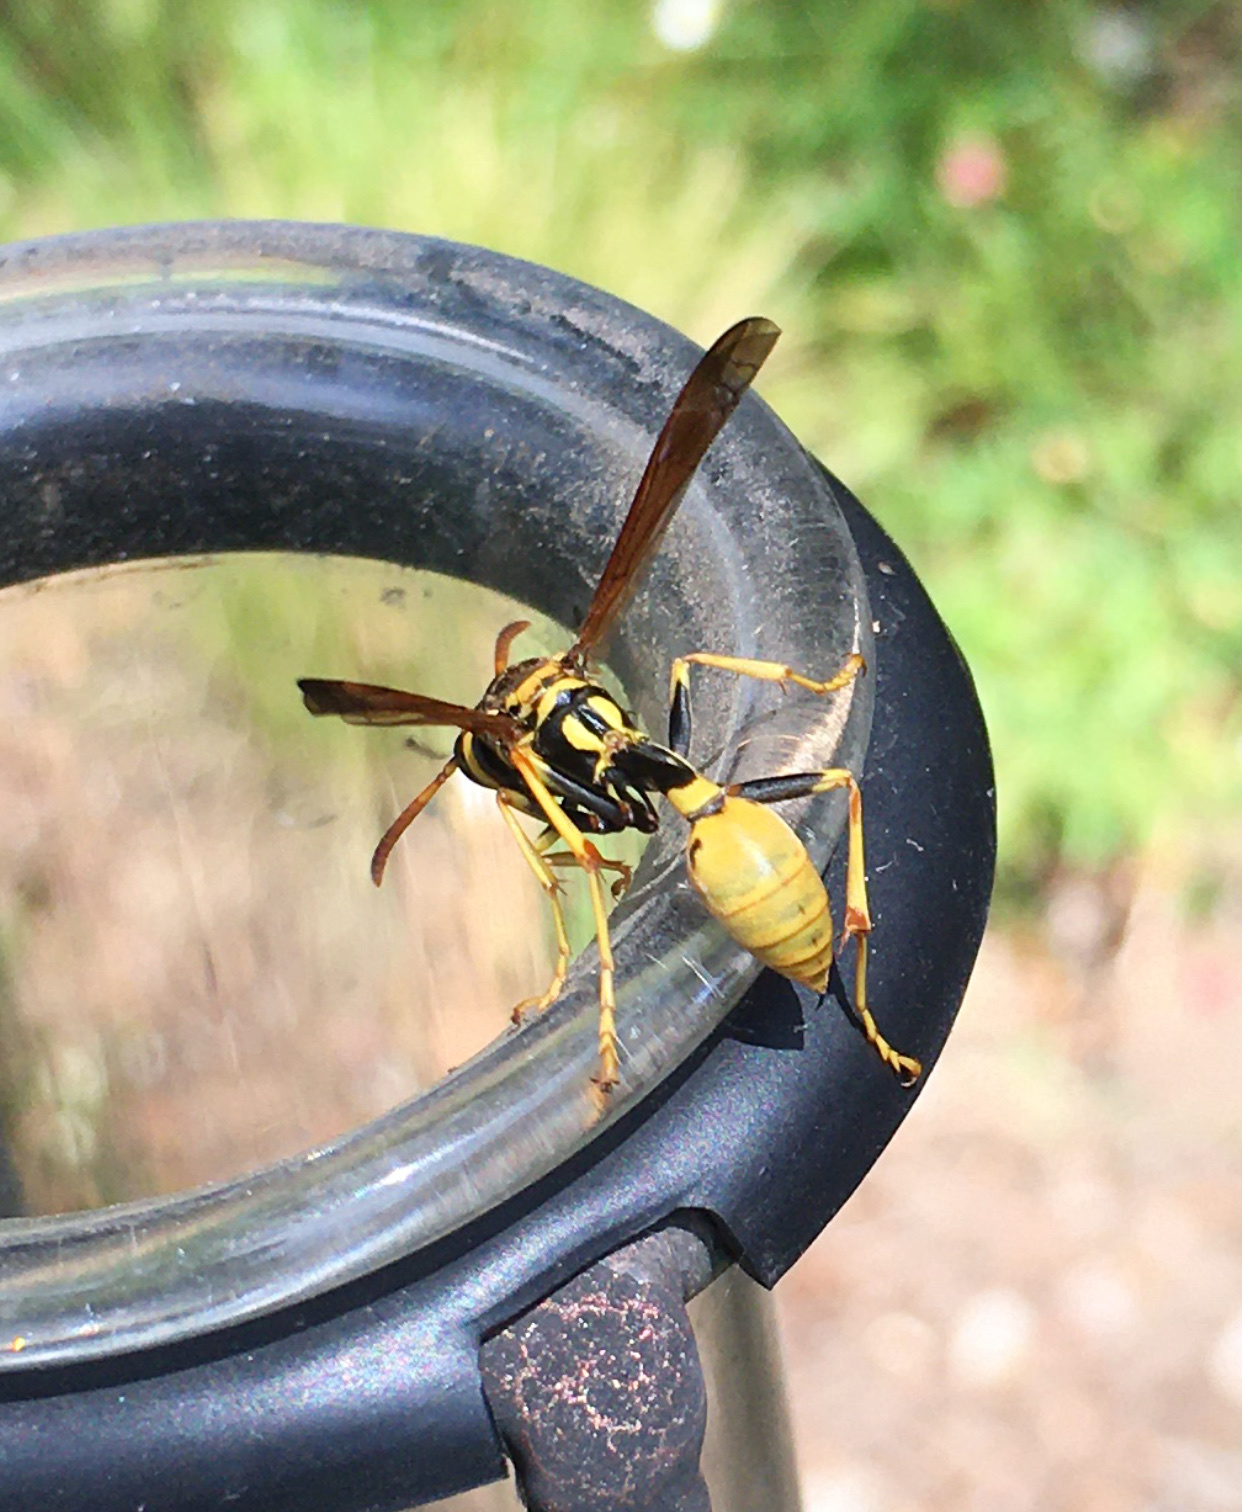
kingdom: Animalia
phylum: Arthropoda
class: Insecta
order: Hymenoptera
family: Vespidae
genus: Mischocyttarus
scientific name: Mischocyttarus flavitarsis
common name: Wasp
